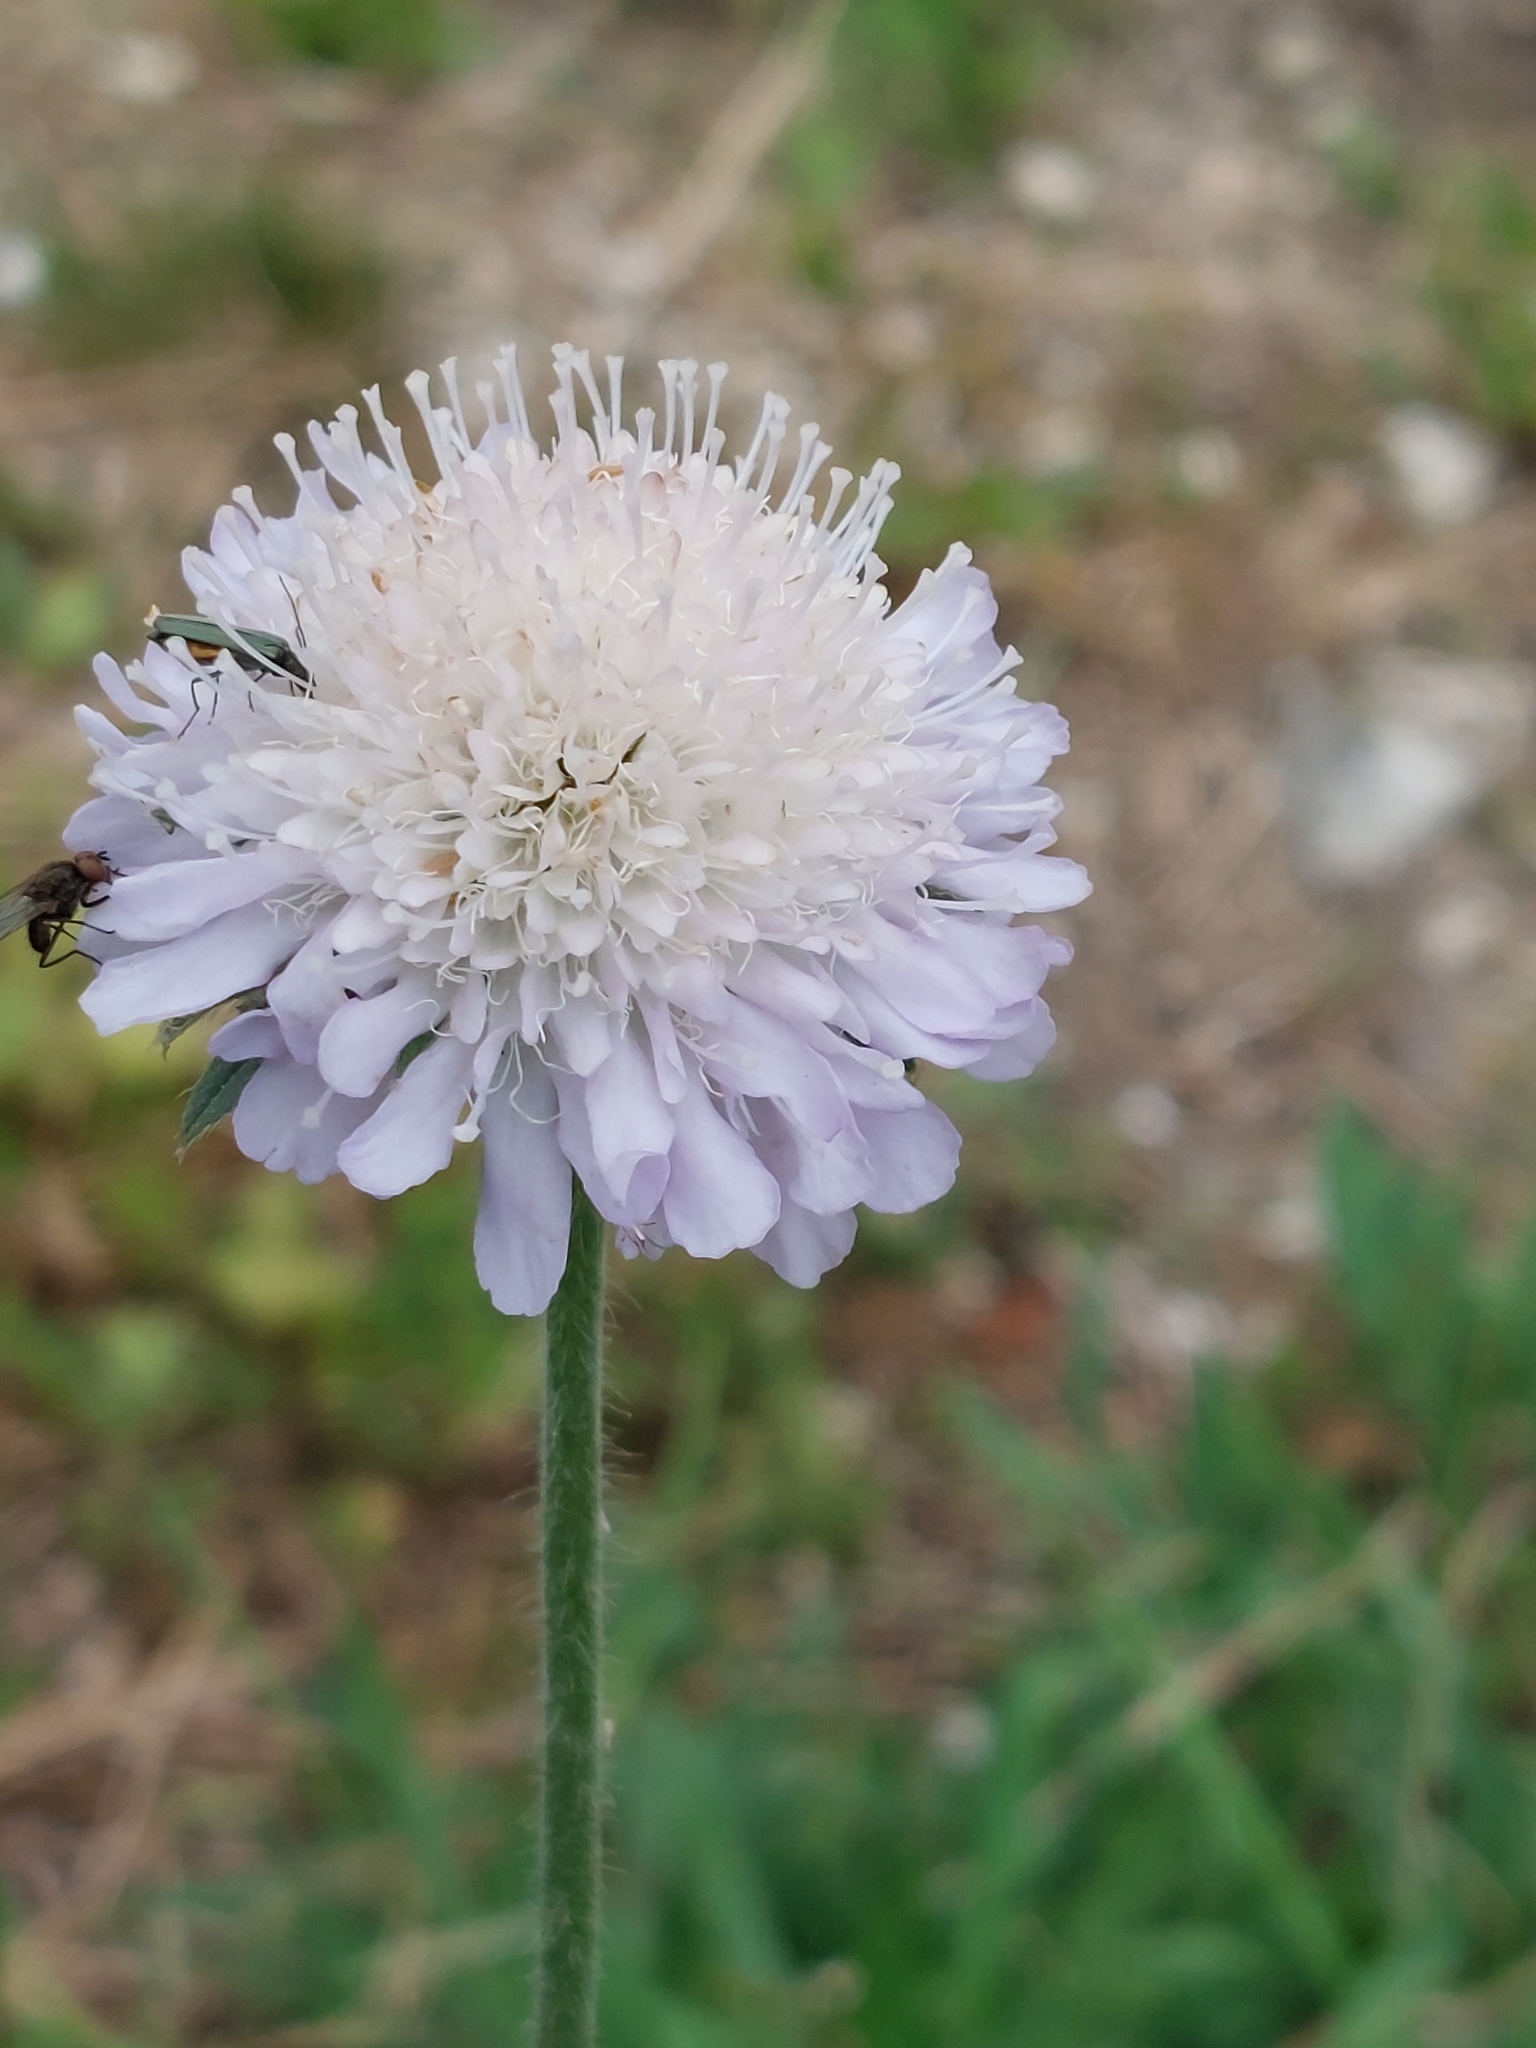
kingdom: Plantae
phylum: Tracheophyta
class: Magnoliopsida
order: Dipsacales
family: Caprifoliaceae
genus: Knautia
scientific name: Knautia arvensis
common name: Field scabiosa
